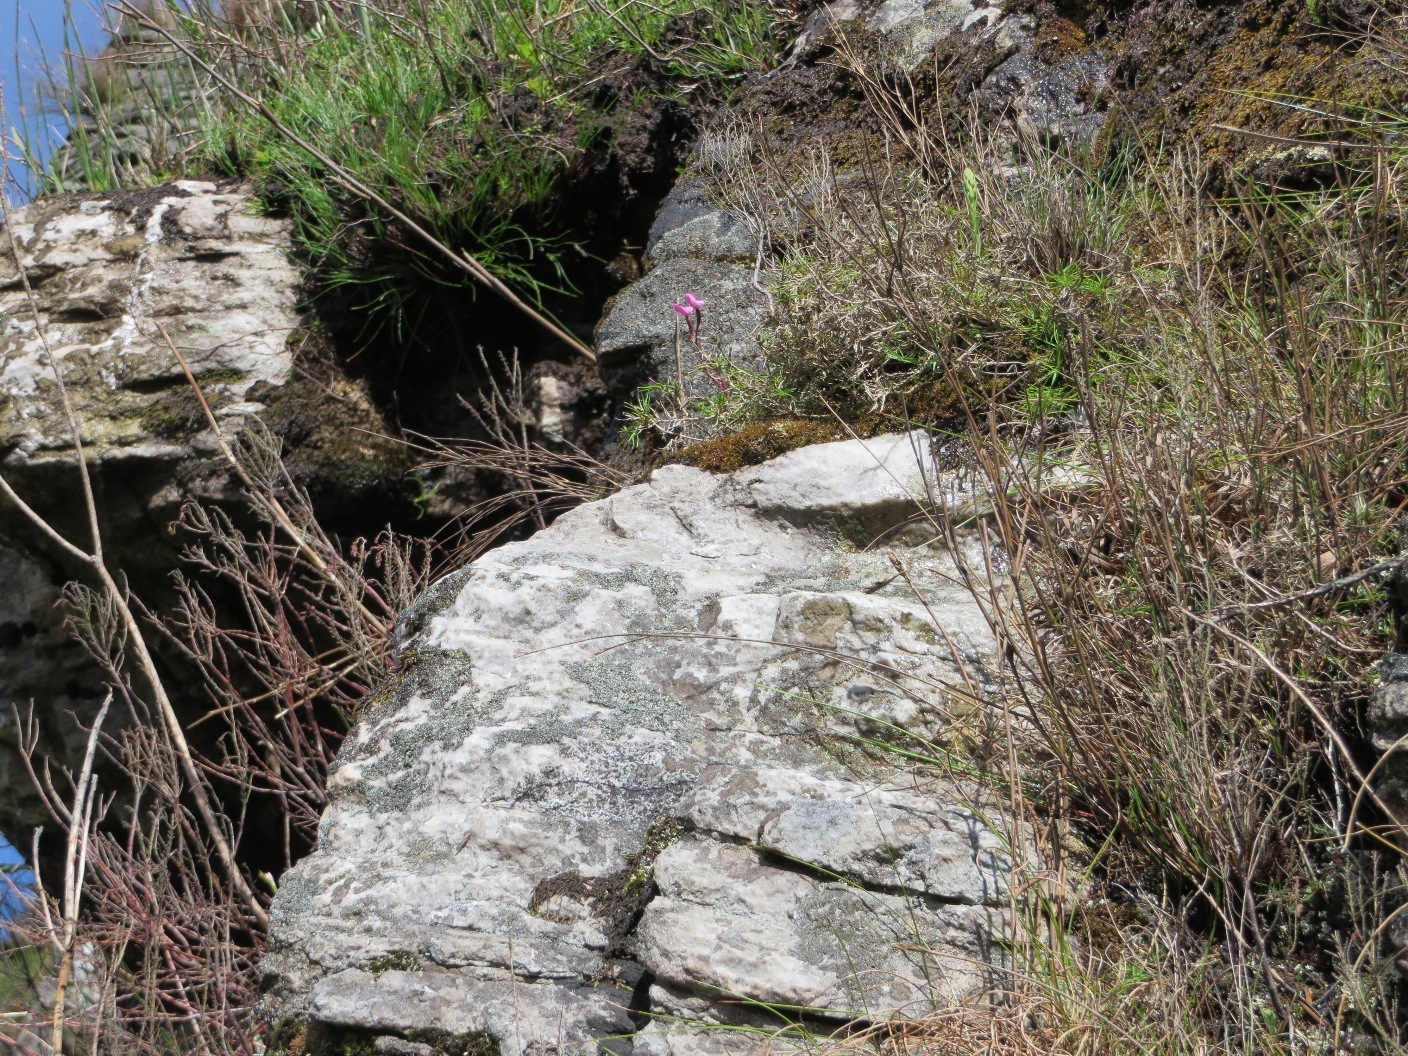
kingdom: Plantae
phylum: Tracheophyta
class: Liliopsida
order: Asparagales
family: Orchidaceae
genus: Disa
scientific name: Disa rosea
